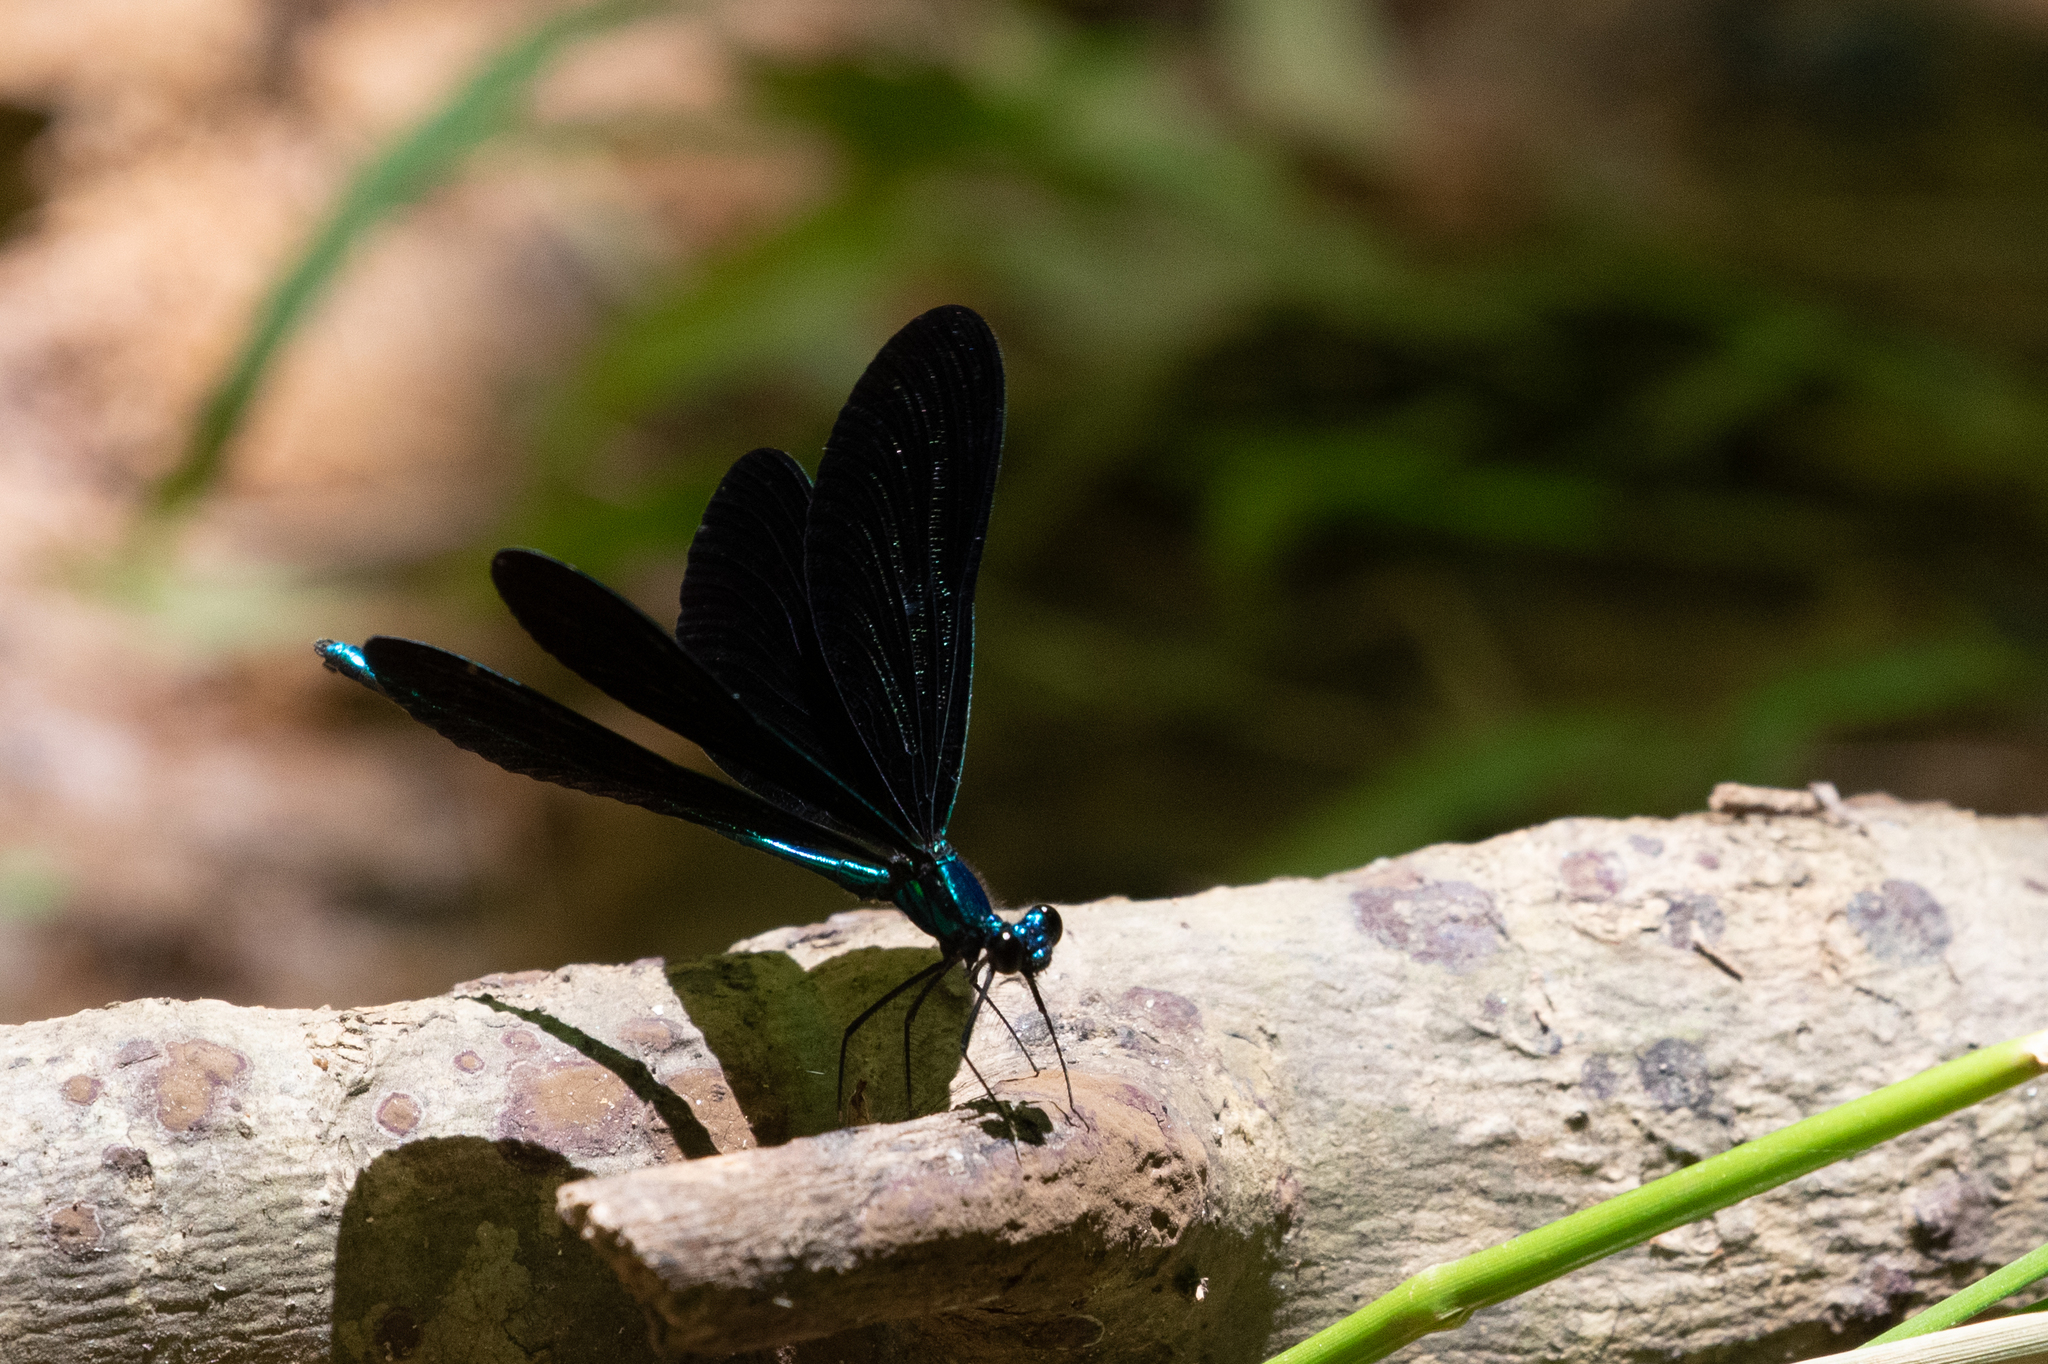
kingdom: Animalia
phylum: Arthropoda
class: Insecta
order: Odonata
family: Calopterygidae
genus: Calopteryx
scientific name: Calopteryx maculata
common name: Ebony jewelwing
